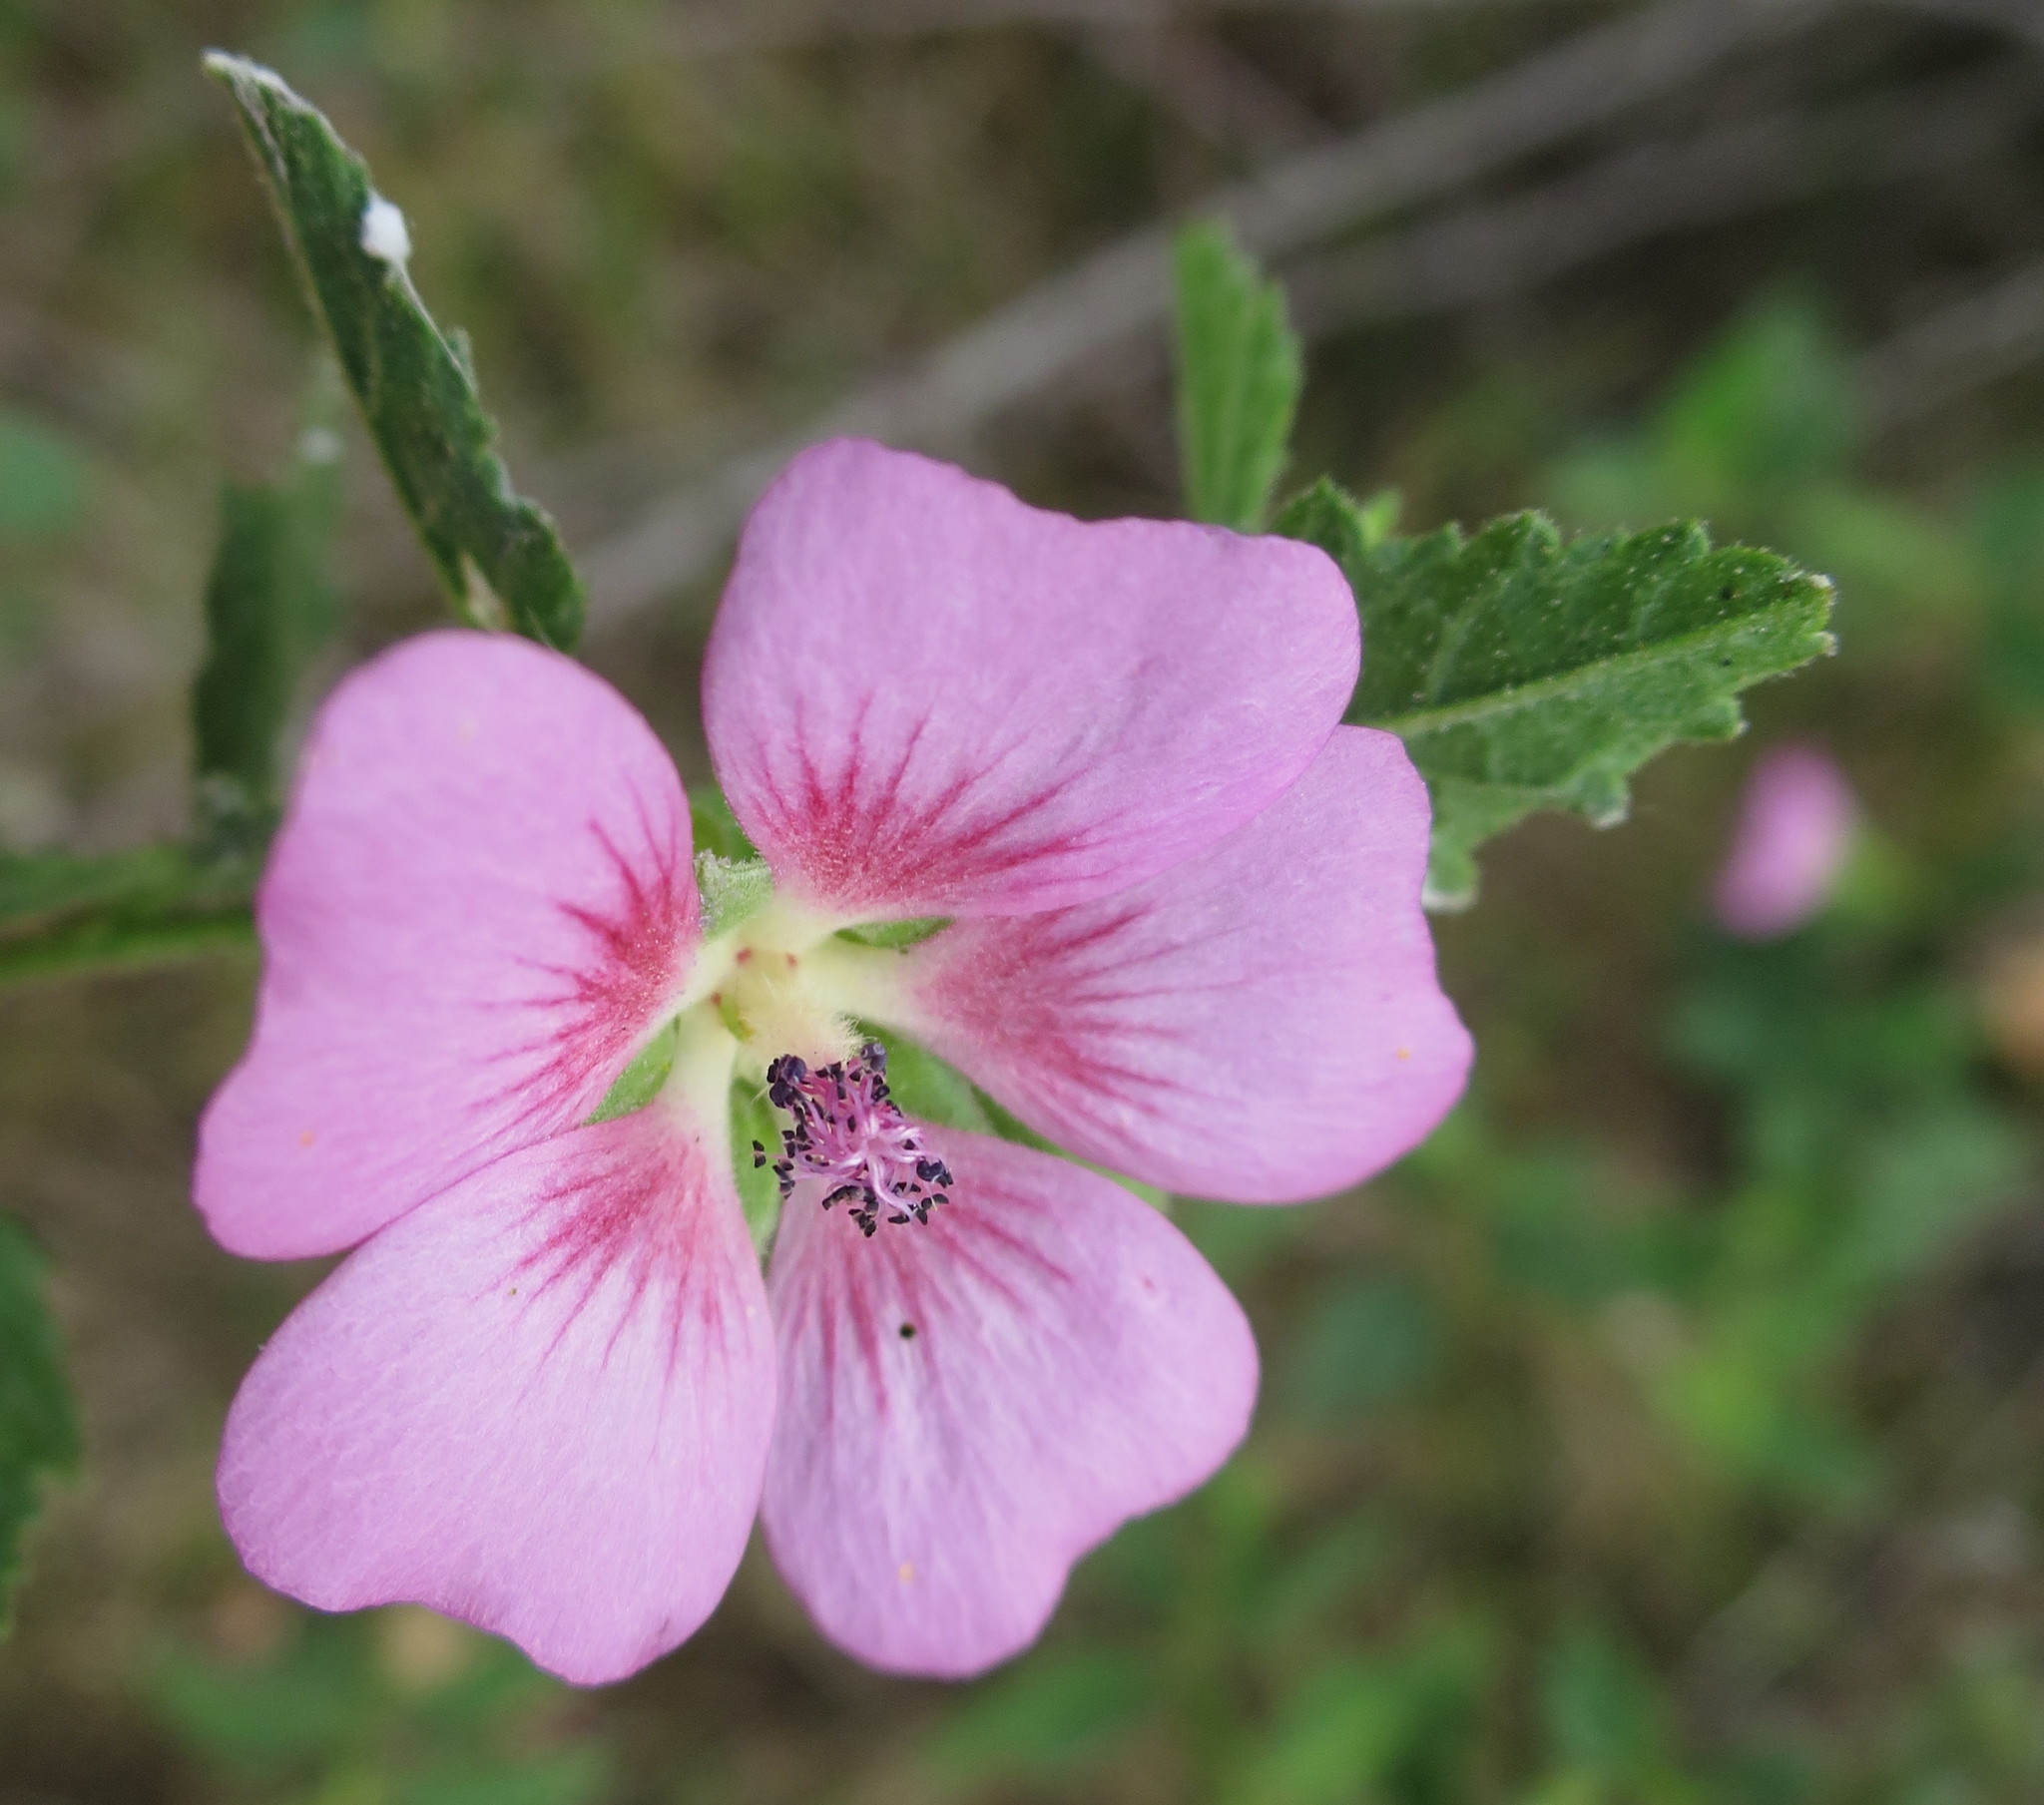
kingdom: Plantae
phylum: Tracheophyta
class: Magnoliopsida
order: Malvales
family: Malvaceae
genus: Anisodontea
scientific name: Anisodontea scabrosa
